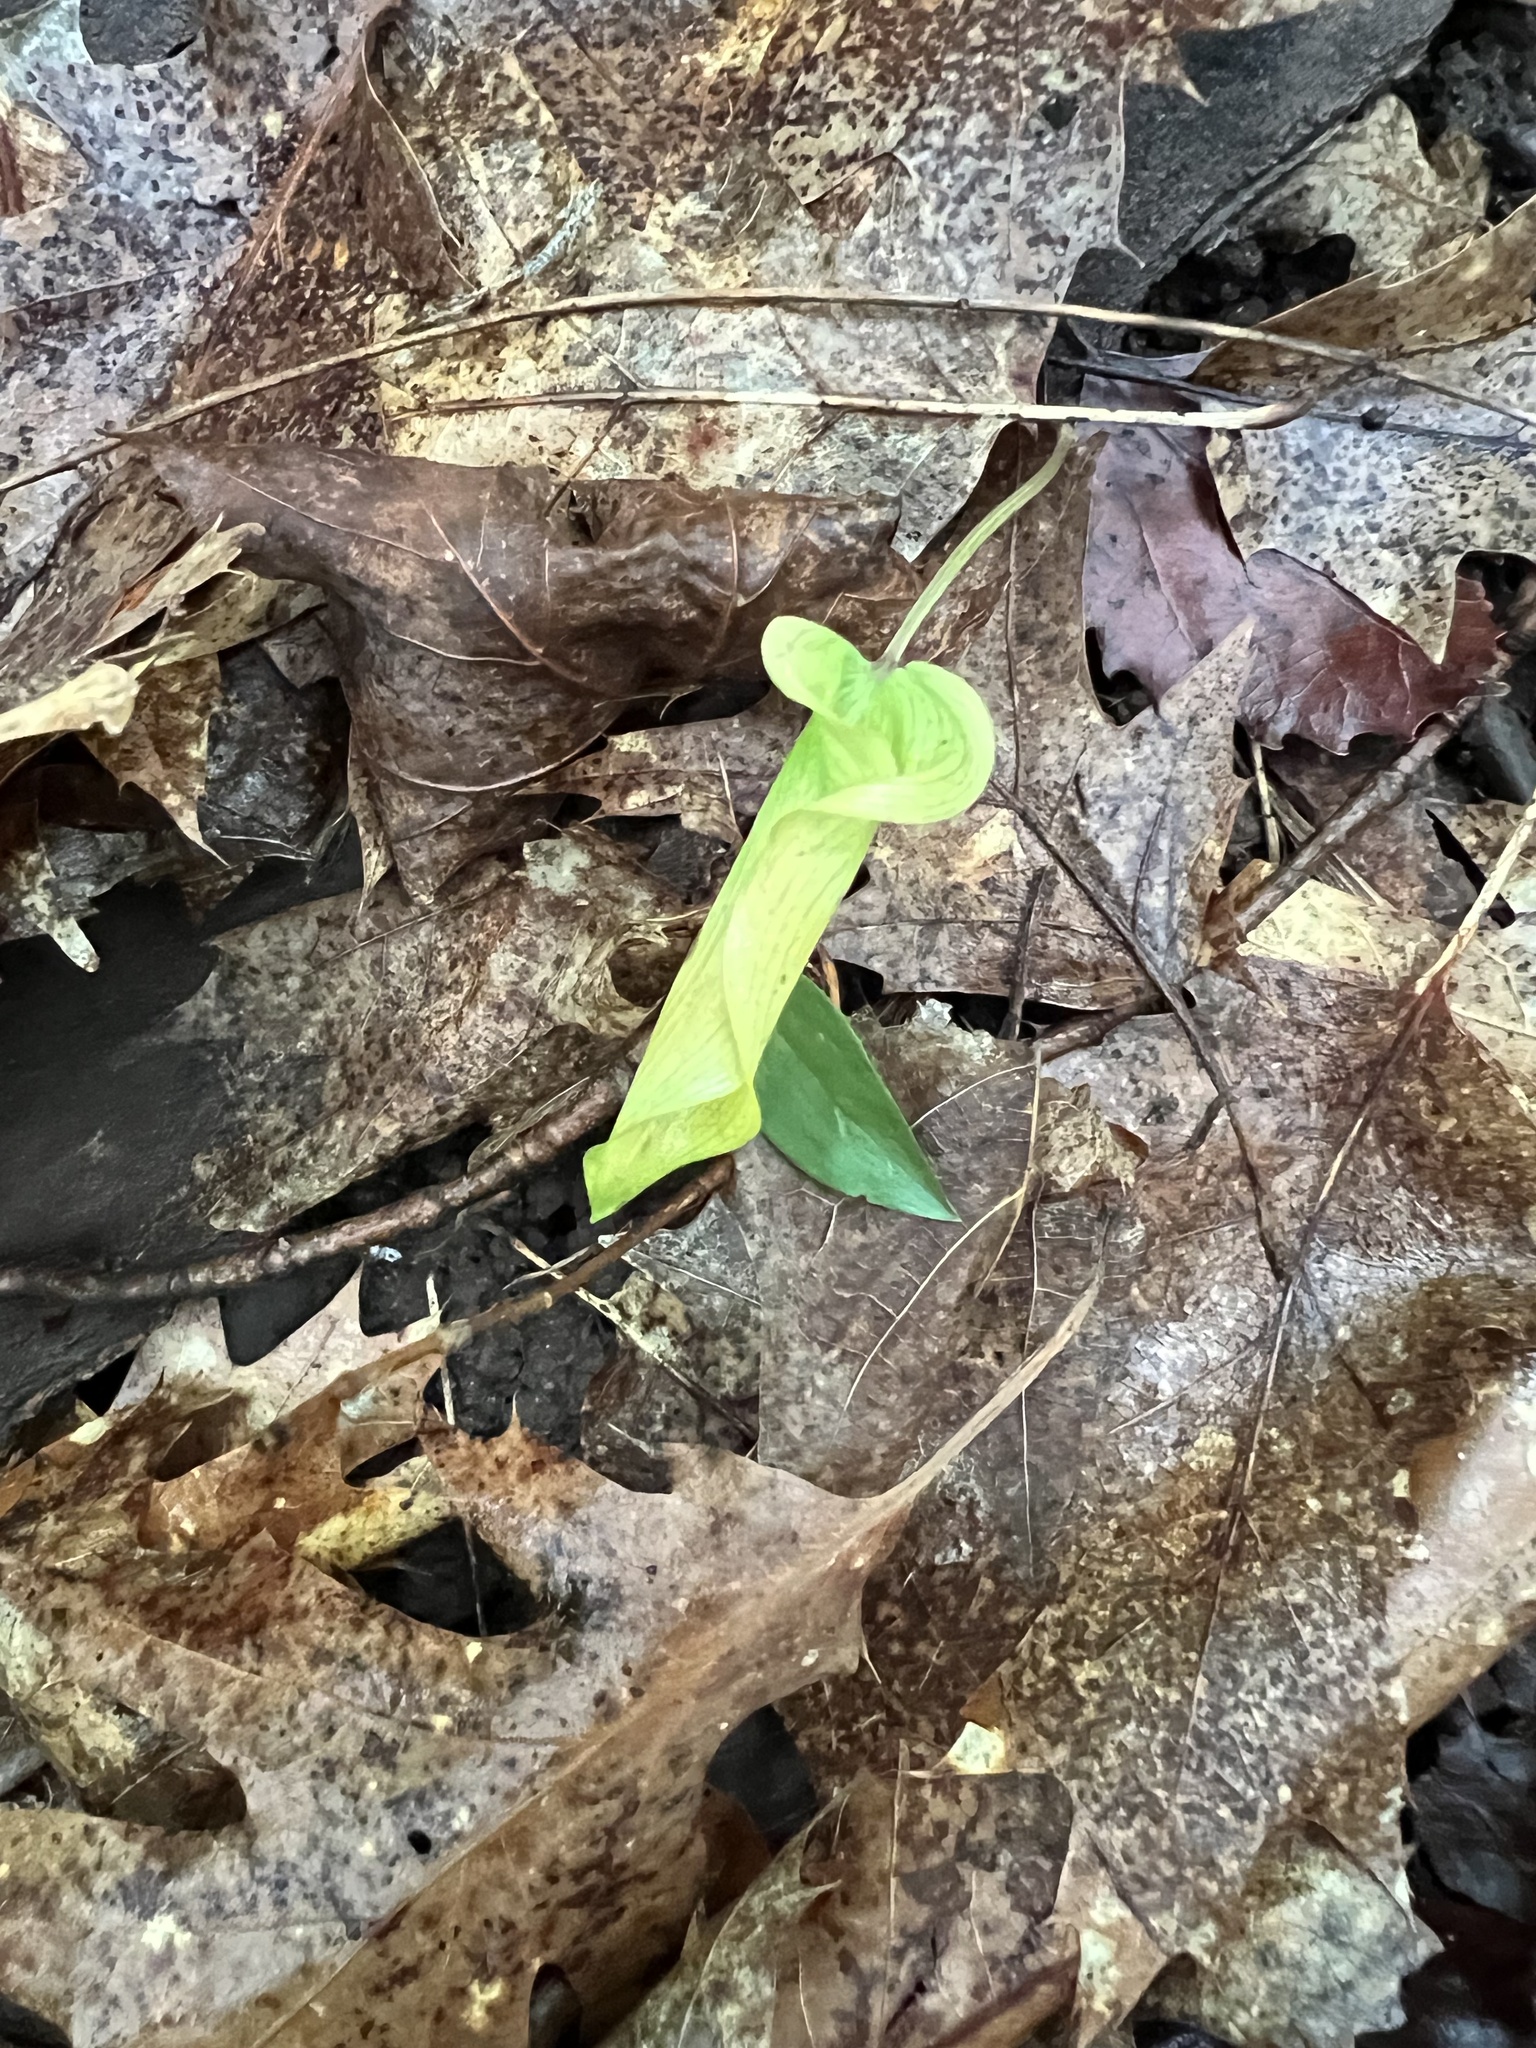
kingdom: Plantae
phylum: Tracheophyta
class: Liliopsida
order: Alismatales
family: Araceae
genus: Arisaema
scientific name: Arisaema triphyllum
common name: Jack-in-the-pulpit
